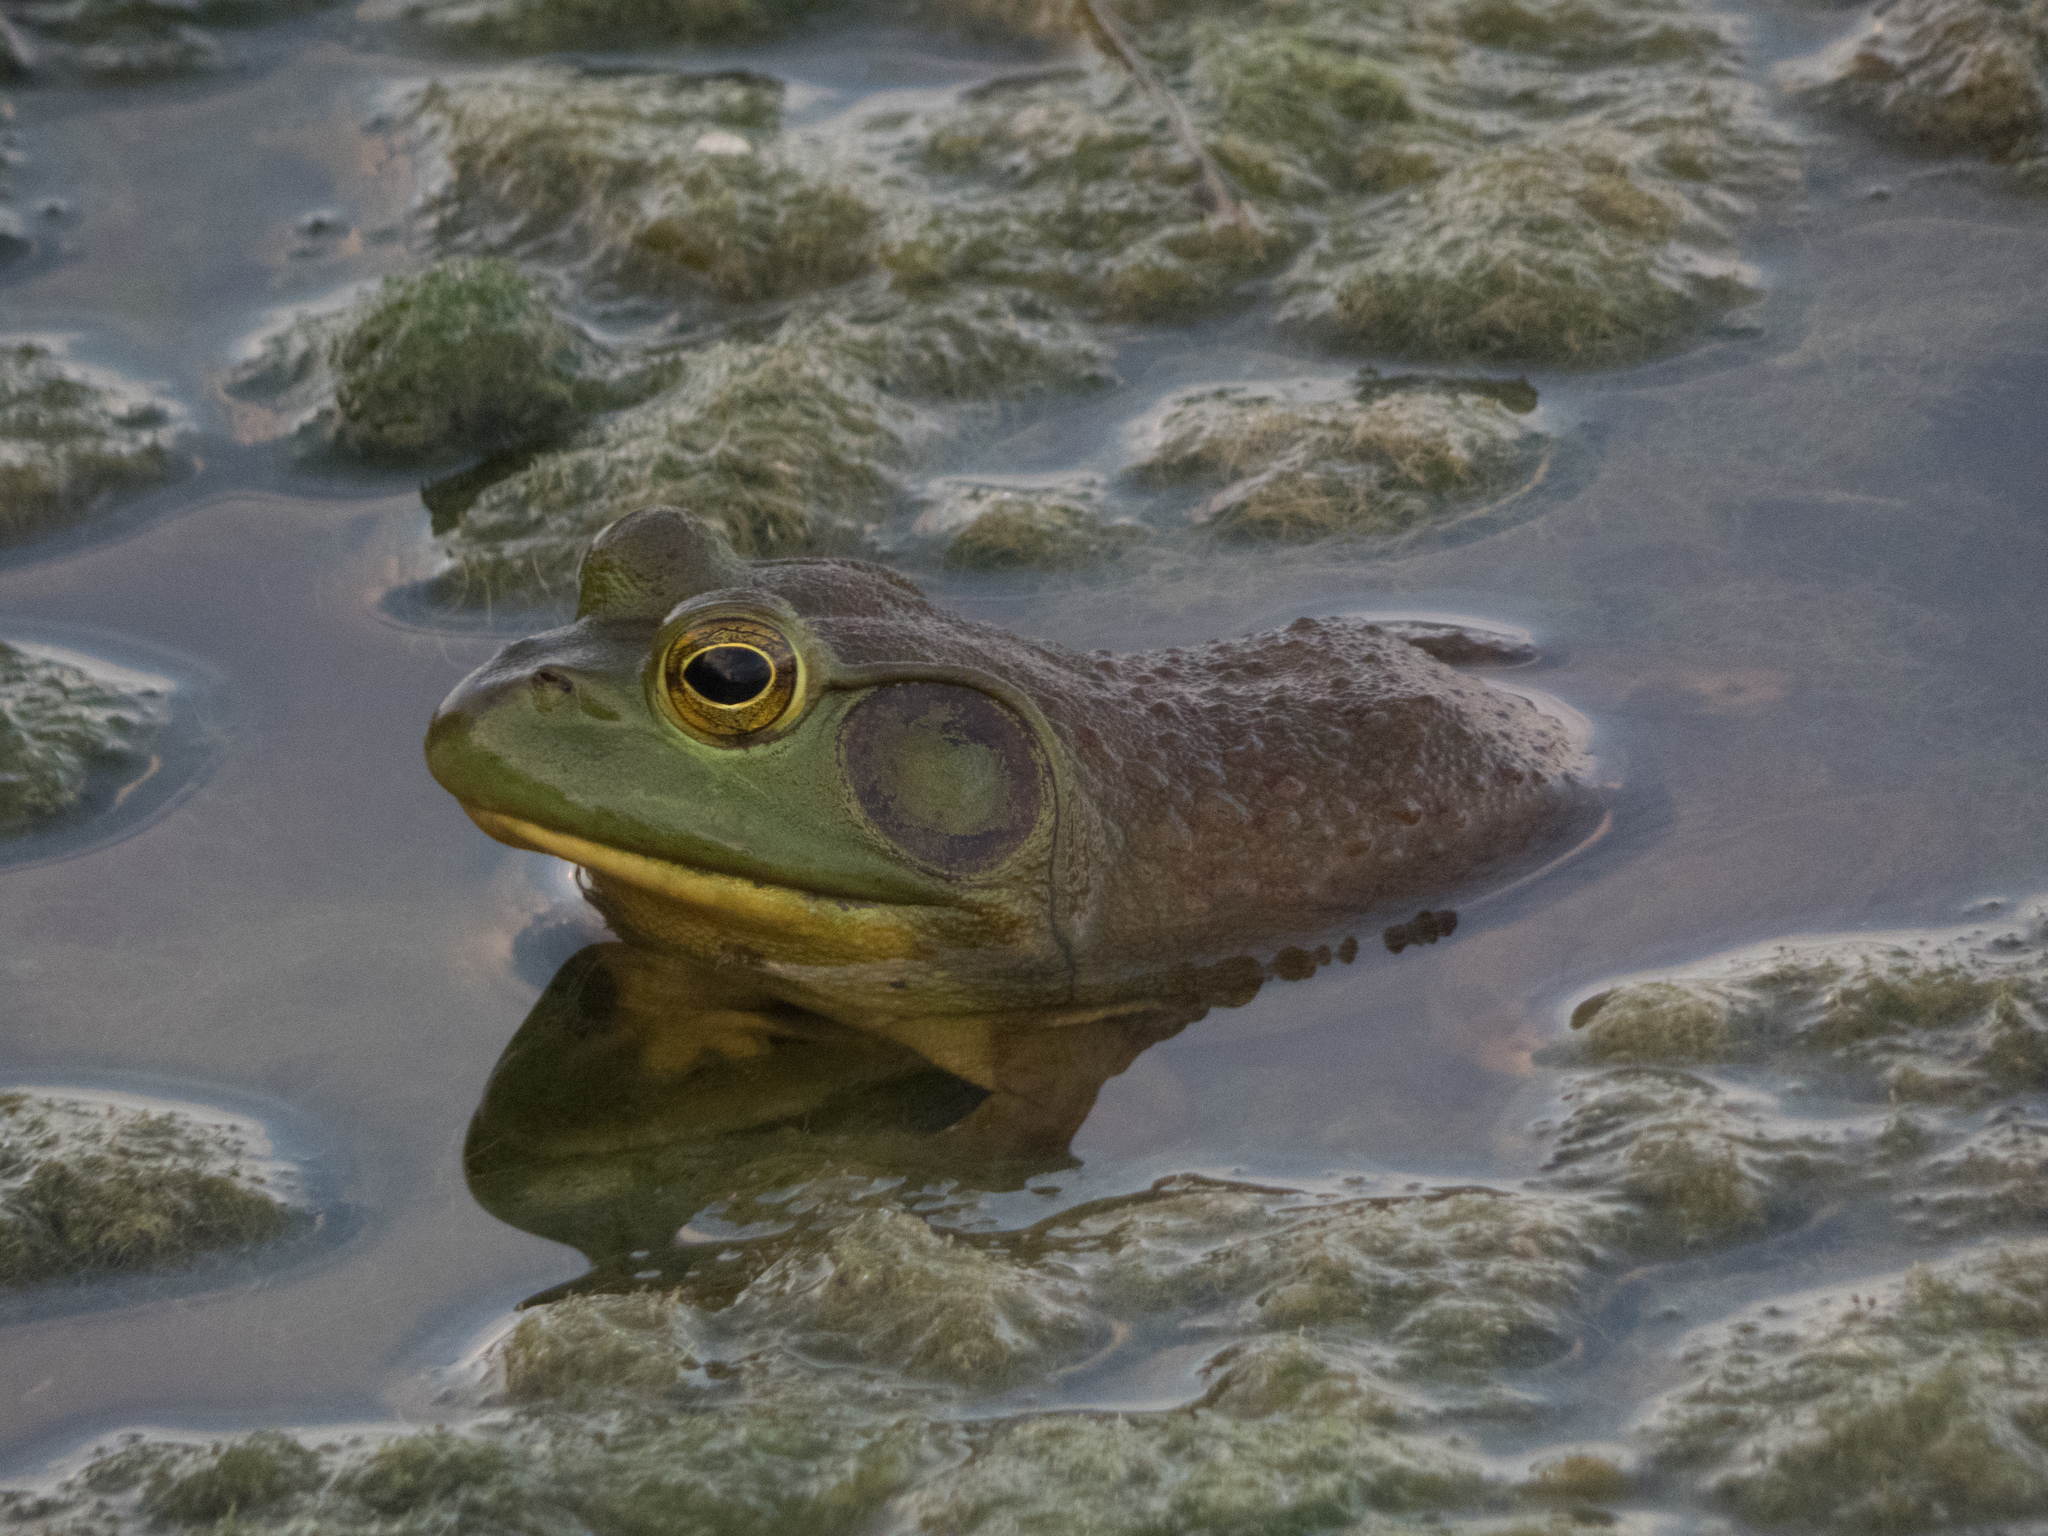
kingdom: Animalia
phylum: Chordata
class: Amphibia
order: Anura
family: Ranidae
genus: Lithobates
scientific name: Lithobates catesbeianus
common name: American bullfrog
